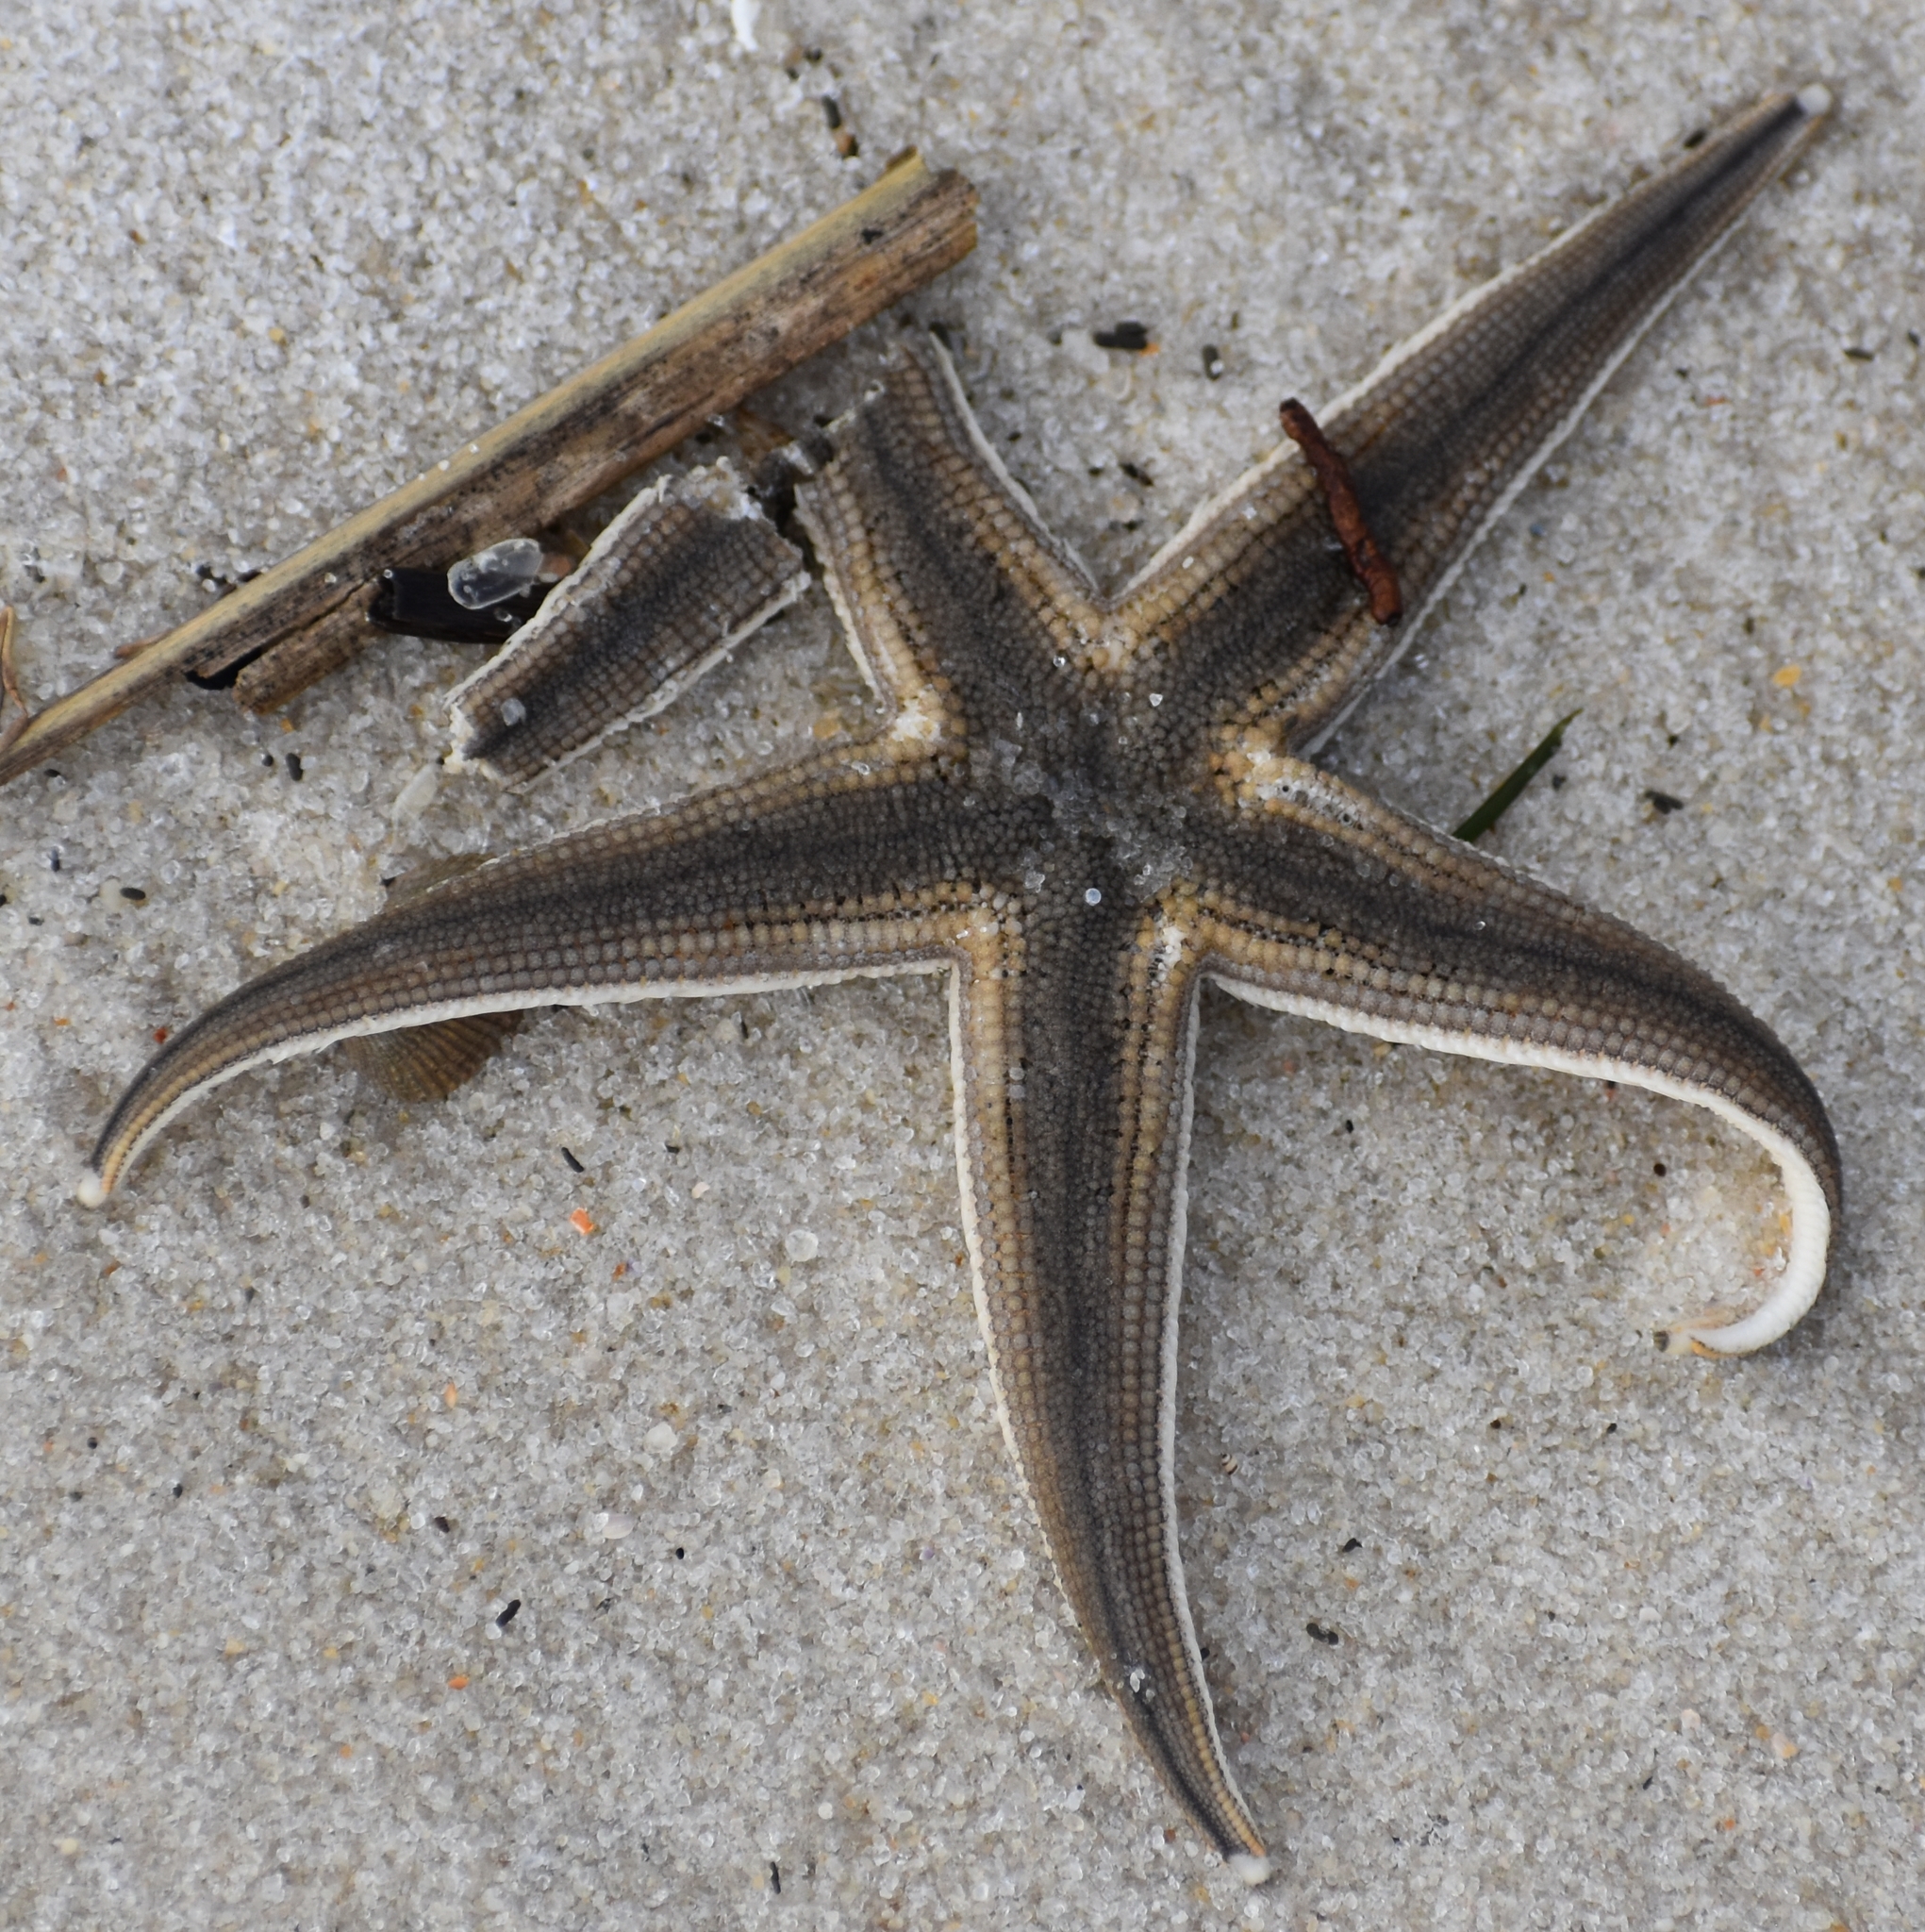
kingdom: Animalia
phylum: Echinodermata
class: Asteroidea
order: Paxillosida
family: Luidiidae
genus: Luidia
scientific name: Luidia clathrata
